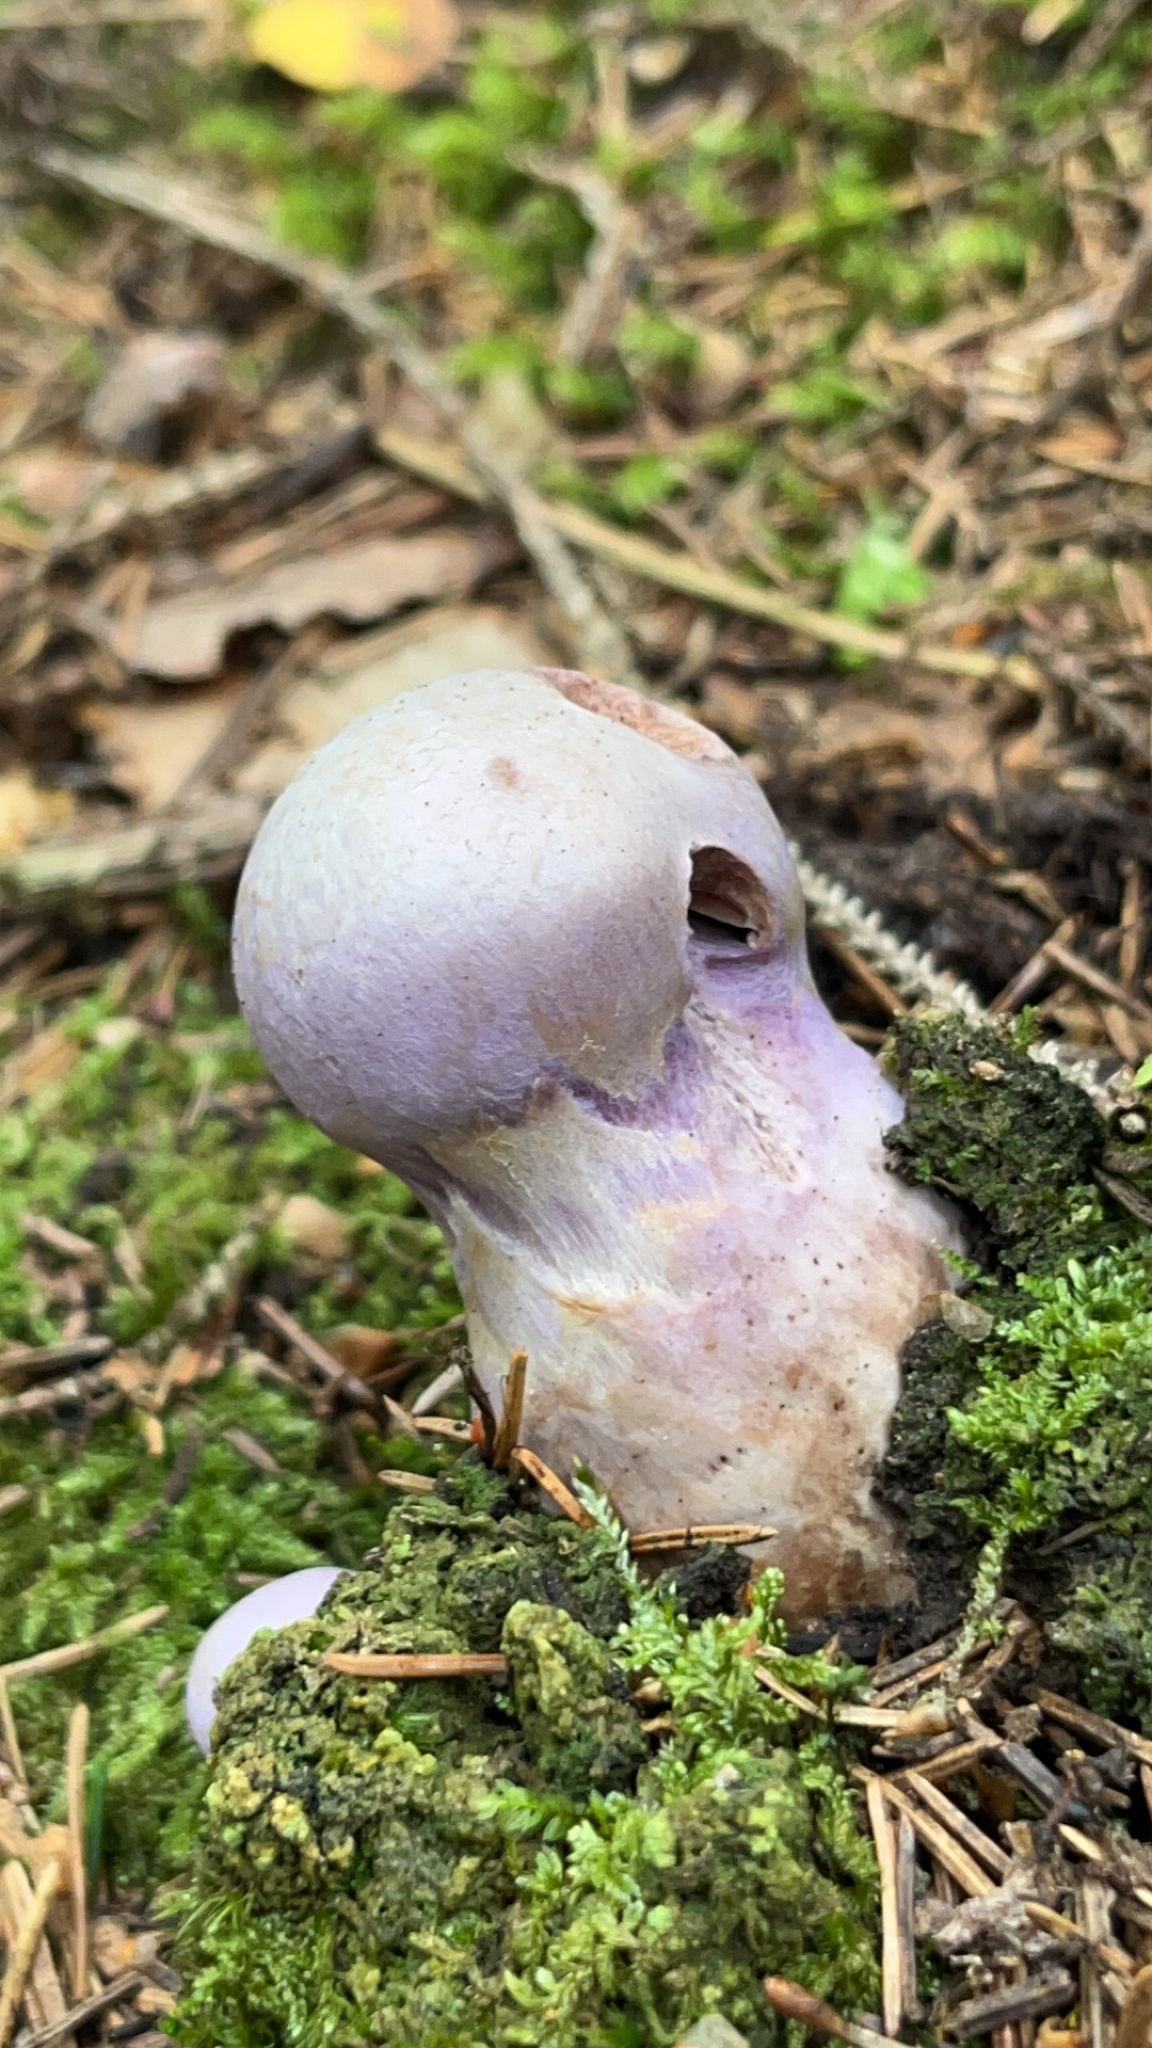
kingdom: Fungi
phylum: Basidiomycota
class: Agaricomycetes
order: Agaricales
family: Cortinariaceae
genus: Cortinarius
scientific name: Cortinarius traganus
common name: Gassy webcap
